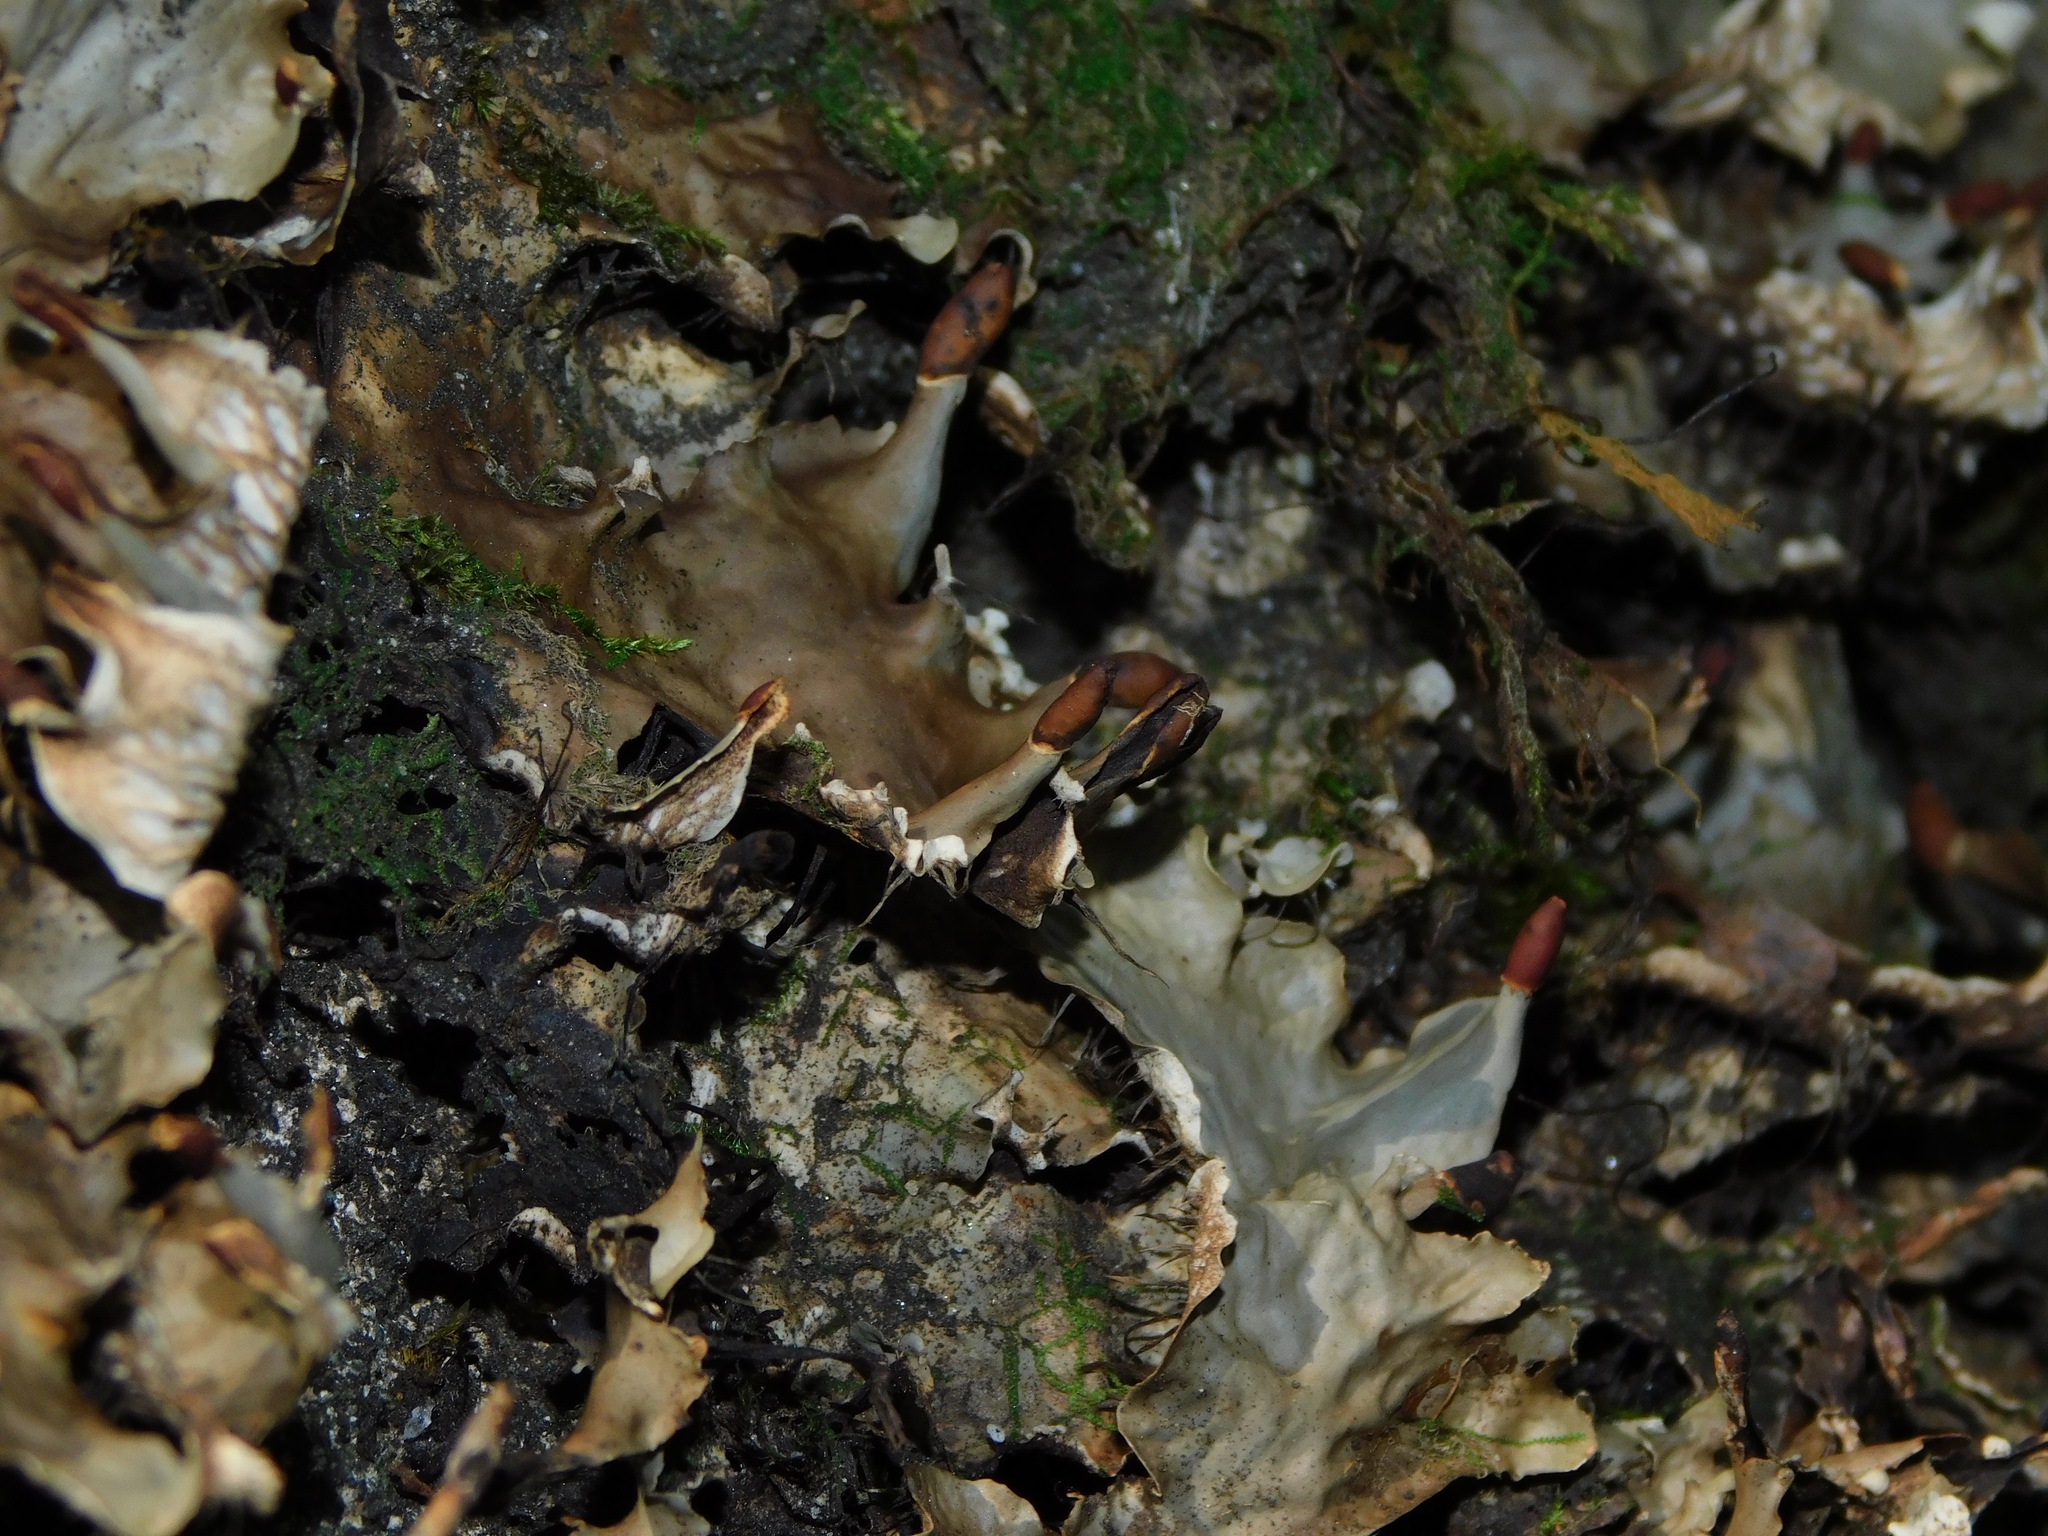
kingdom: Fungi
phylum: Ascomycota
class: Lecanoromycetes
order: Peltigerales
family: Peltigeraceae
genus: Peltigera
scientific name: Peltigera neopolydactyla
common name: Carpet pelt
